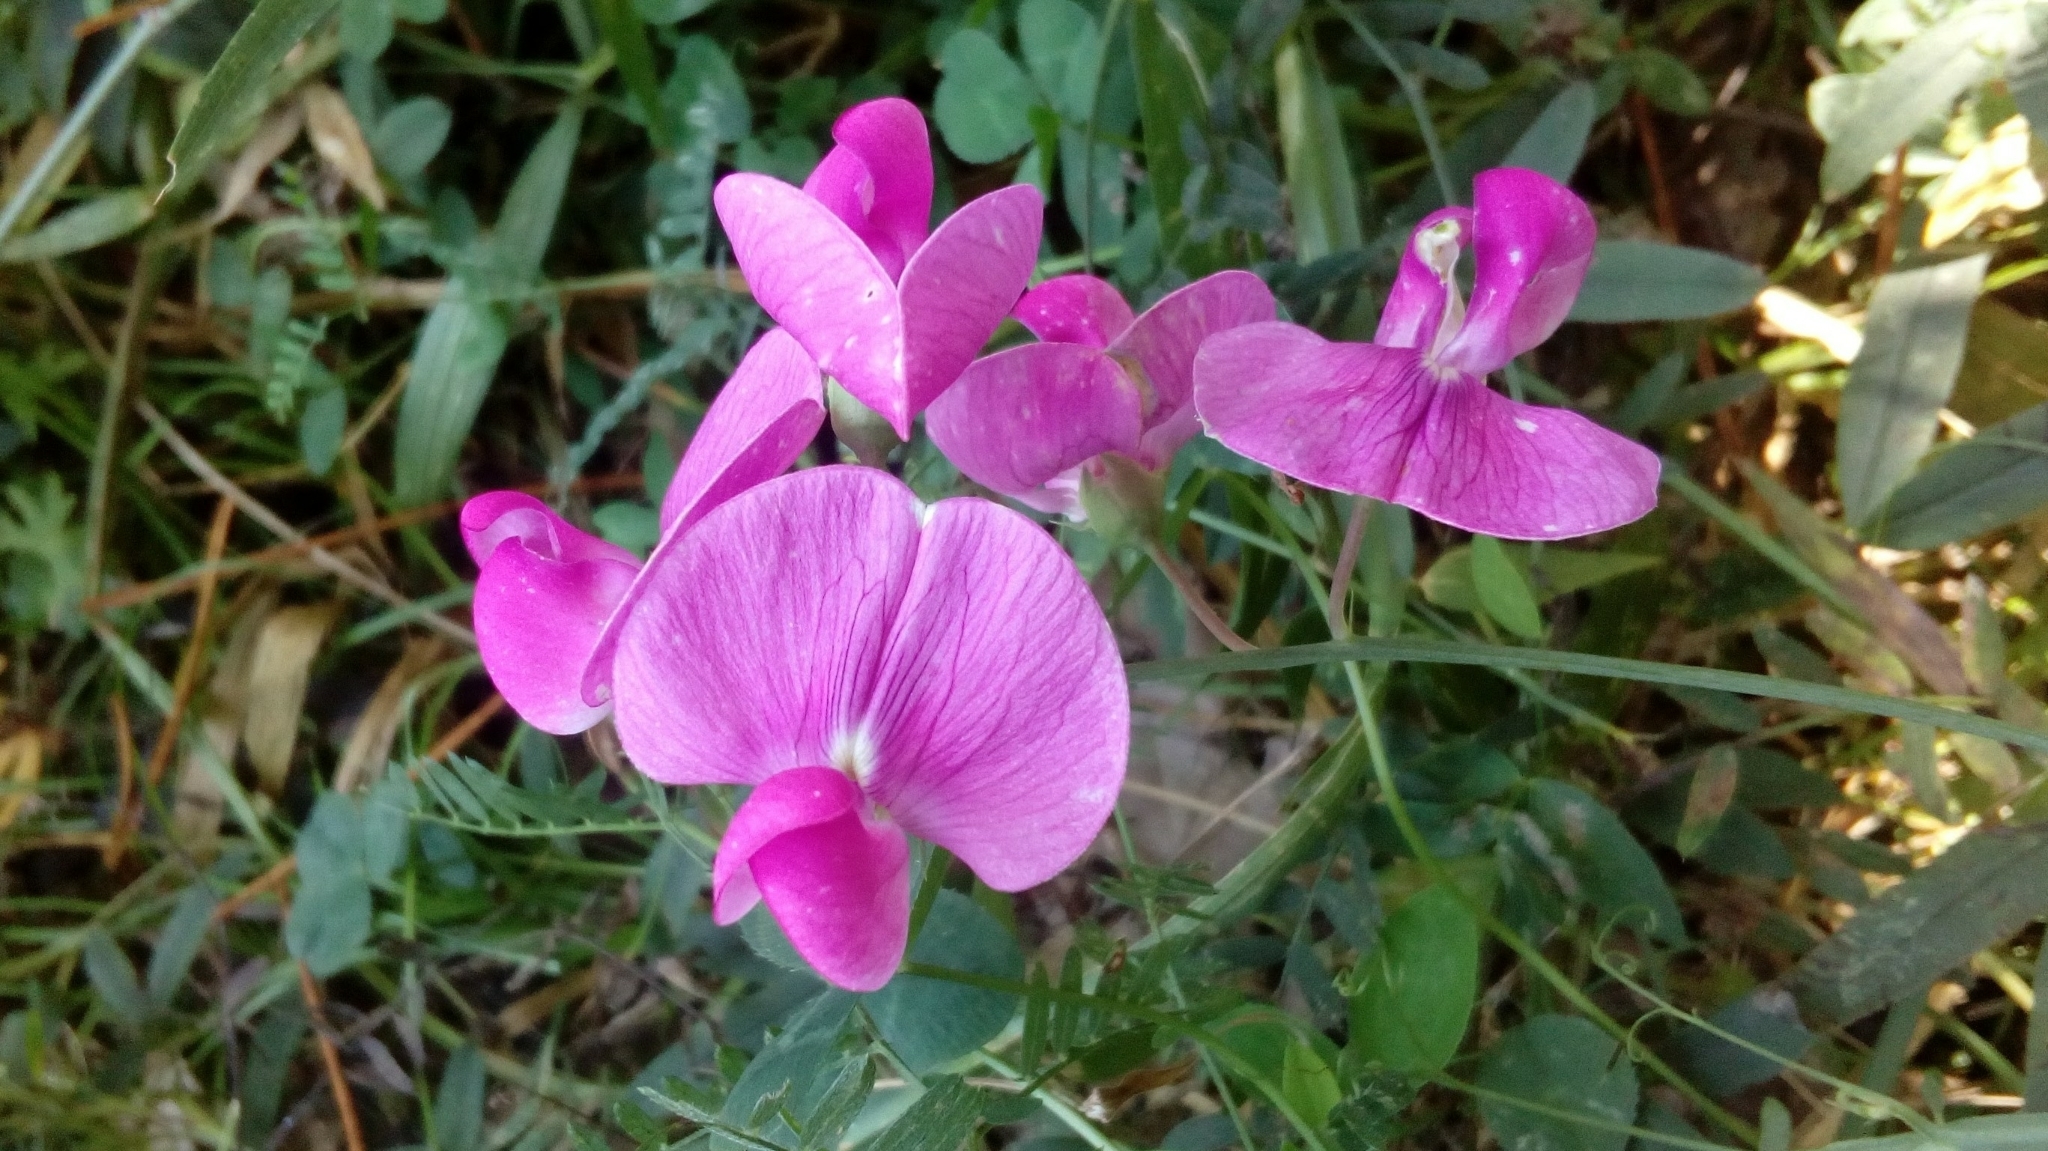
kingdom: Plantae
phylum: Tracheophyta
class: Magnoliopsida
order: Fabales
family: Fabaceae
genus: Lathyrus
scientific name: Lathyrus latifolius
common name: Perennial pea
